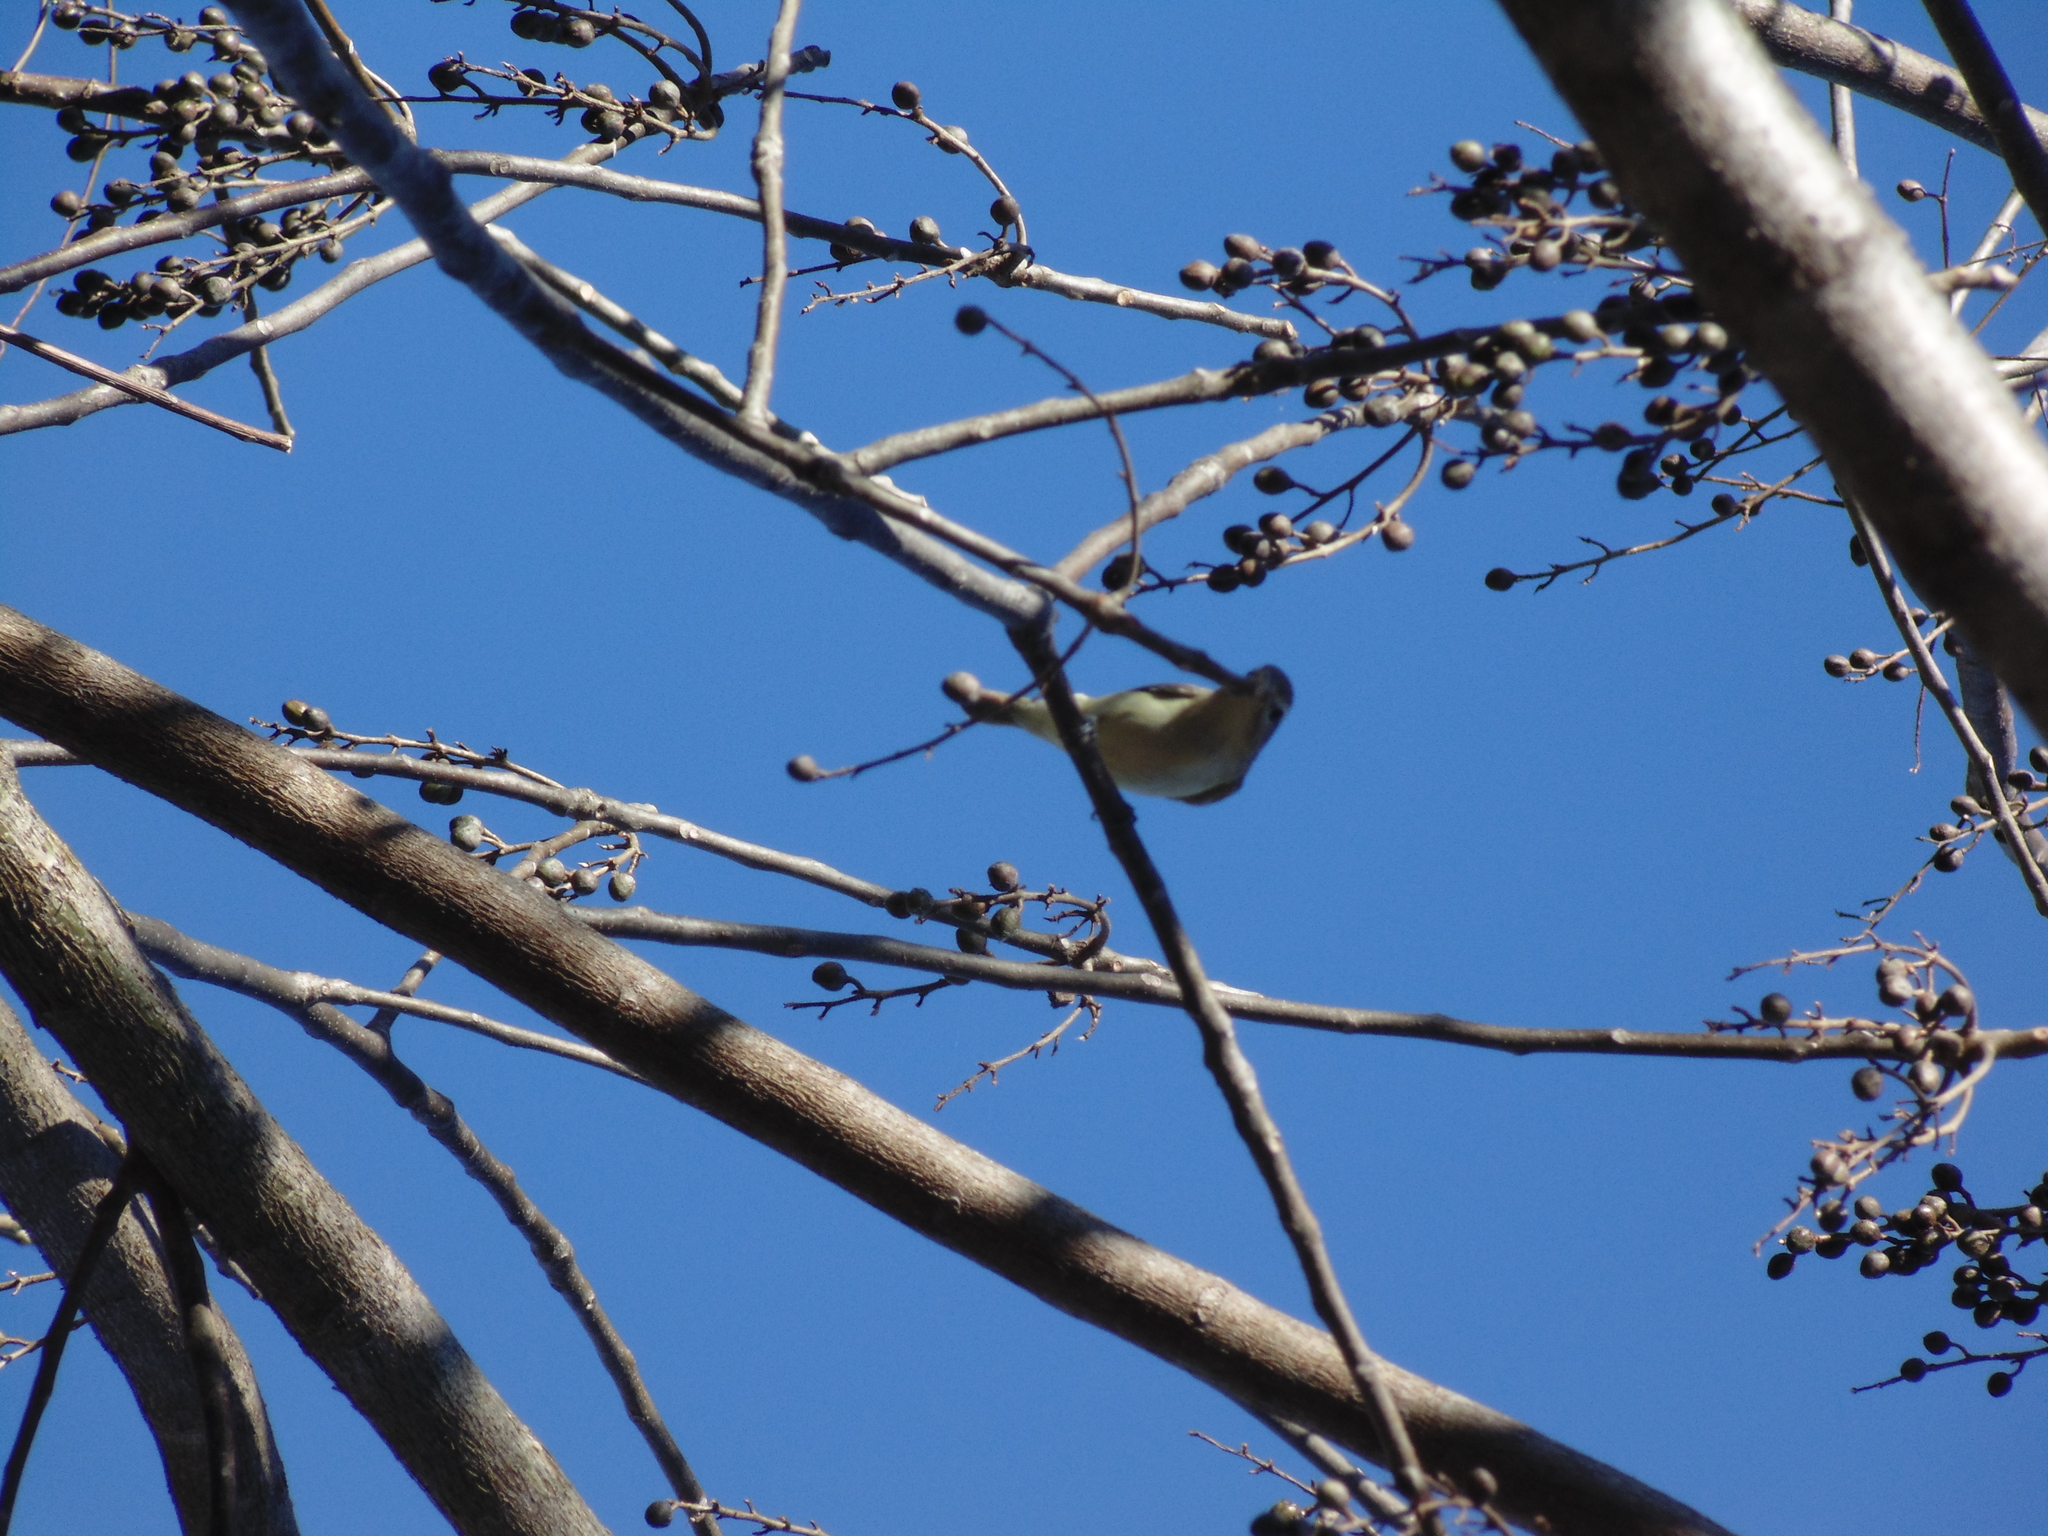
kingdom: Animalia
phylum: Chordata
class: Aves
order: Passeriformes
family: Vireonidae
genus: Vireo
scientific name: Vireo gilvus
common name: Warbling vireo
